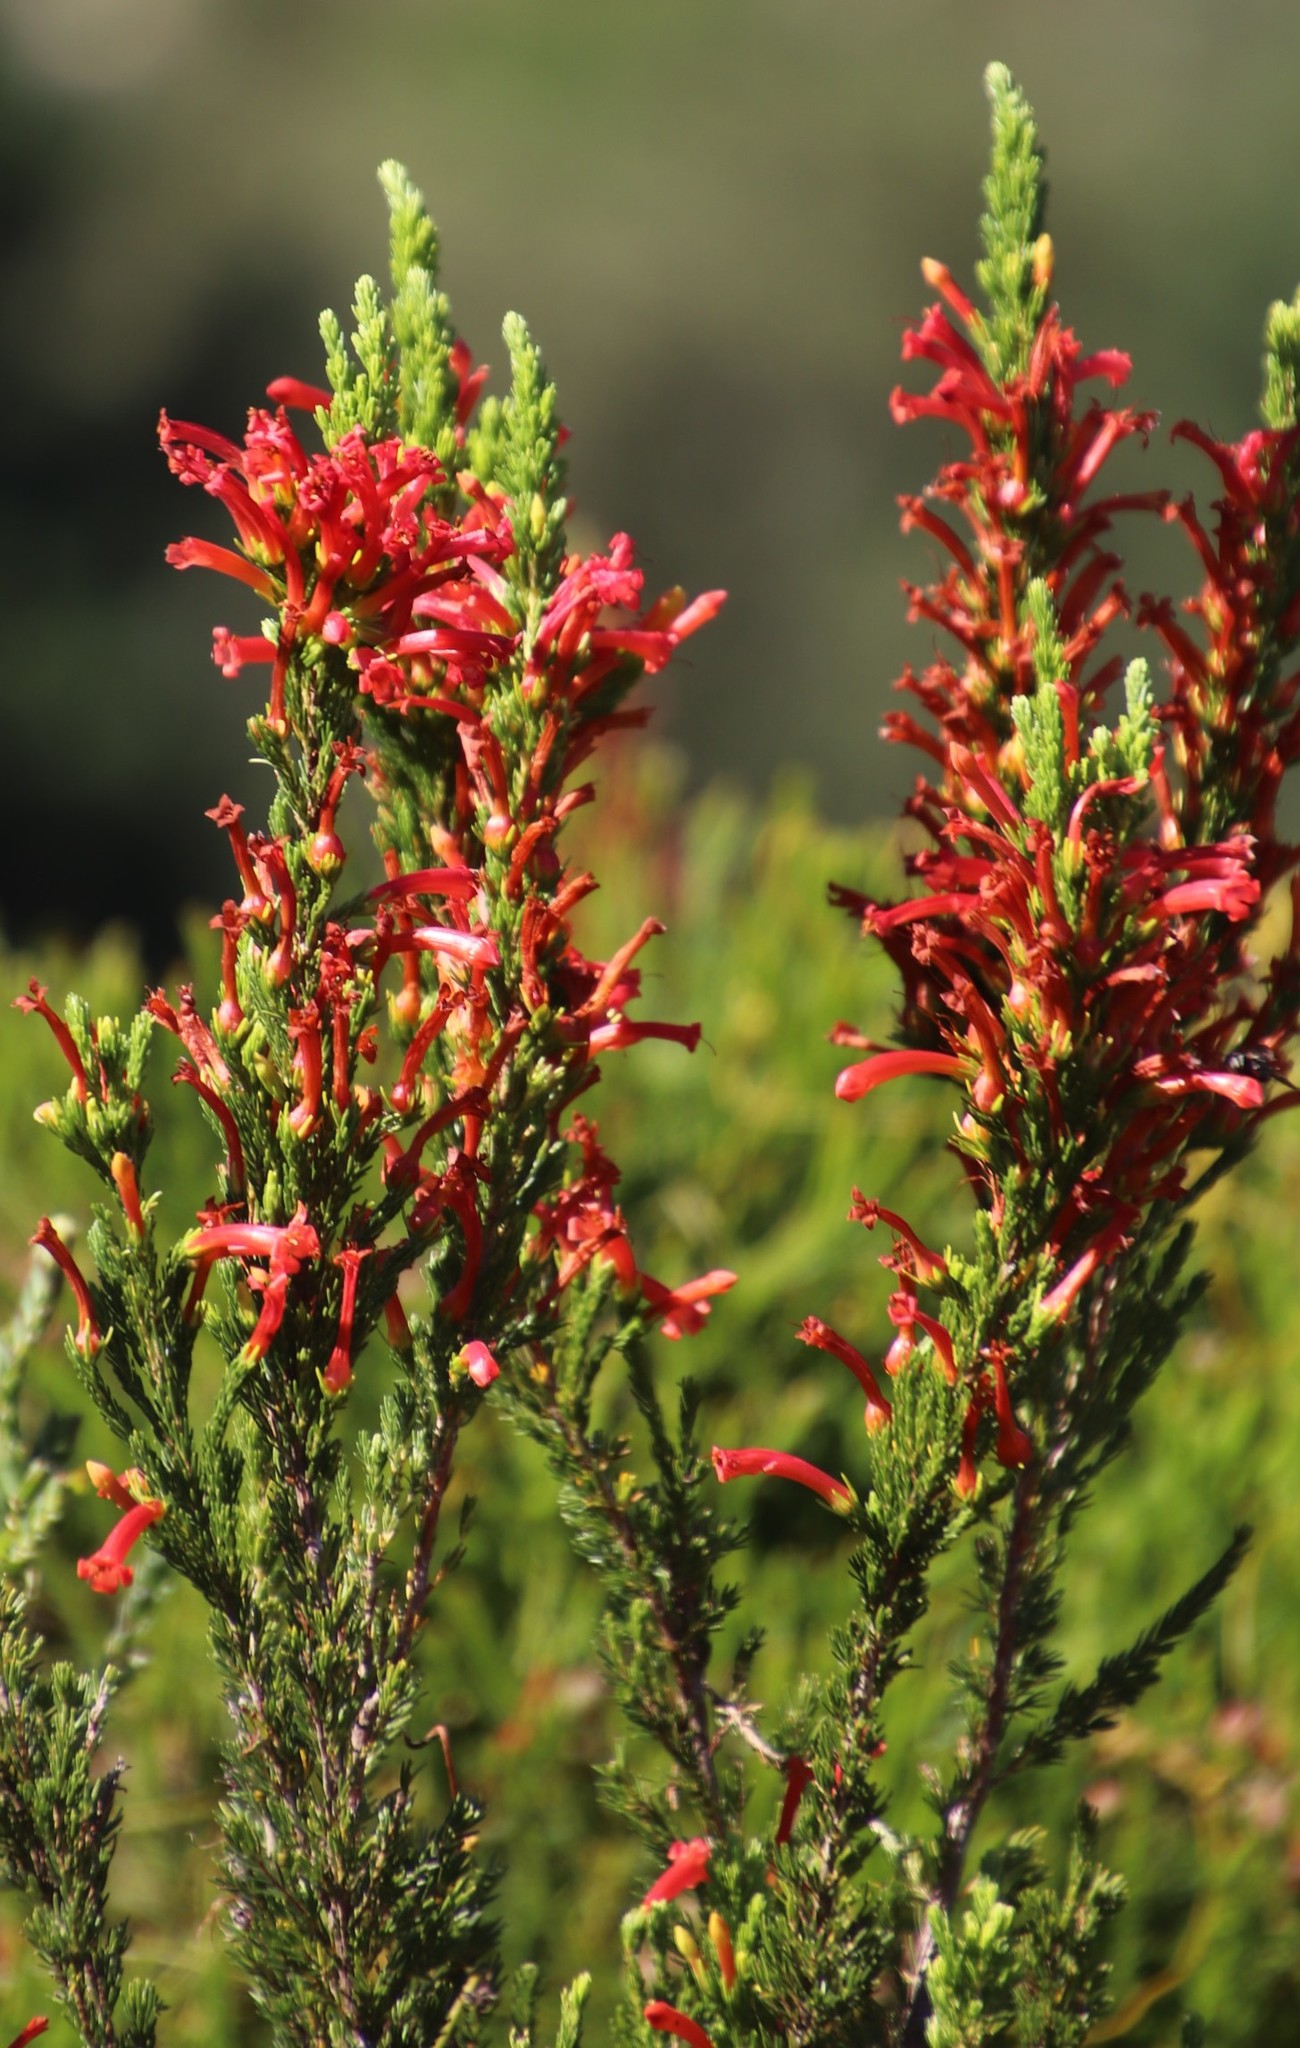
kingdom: Plantae
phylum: Tracheophyta
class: Magnoliopsida
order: Ericales
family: Ericaceae
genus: Erica
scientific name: Erica curviflora
